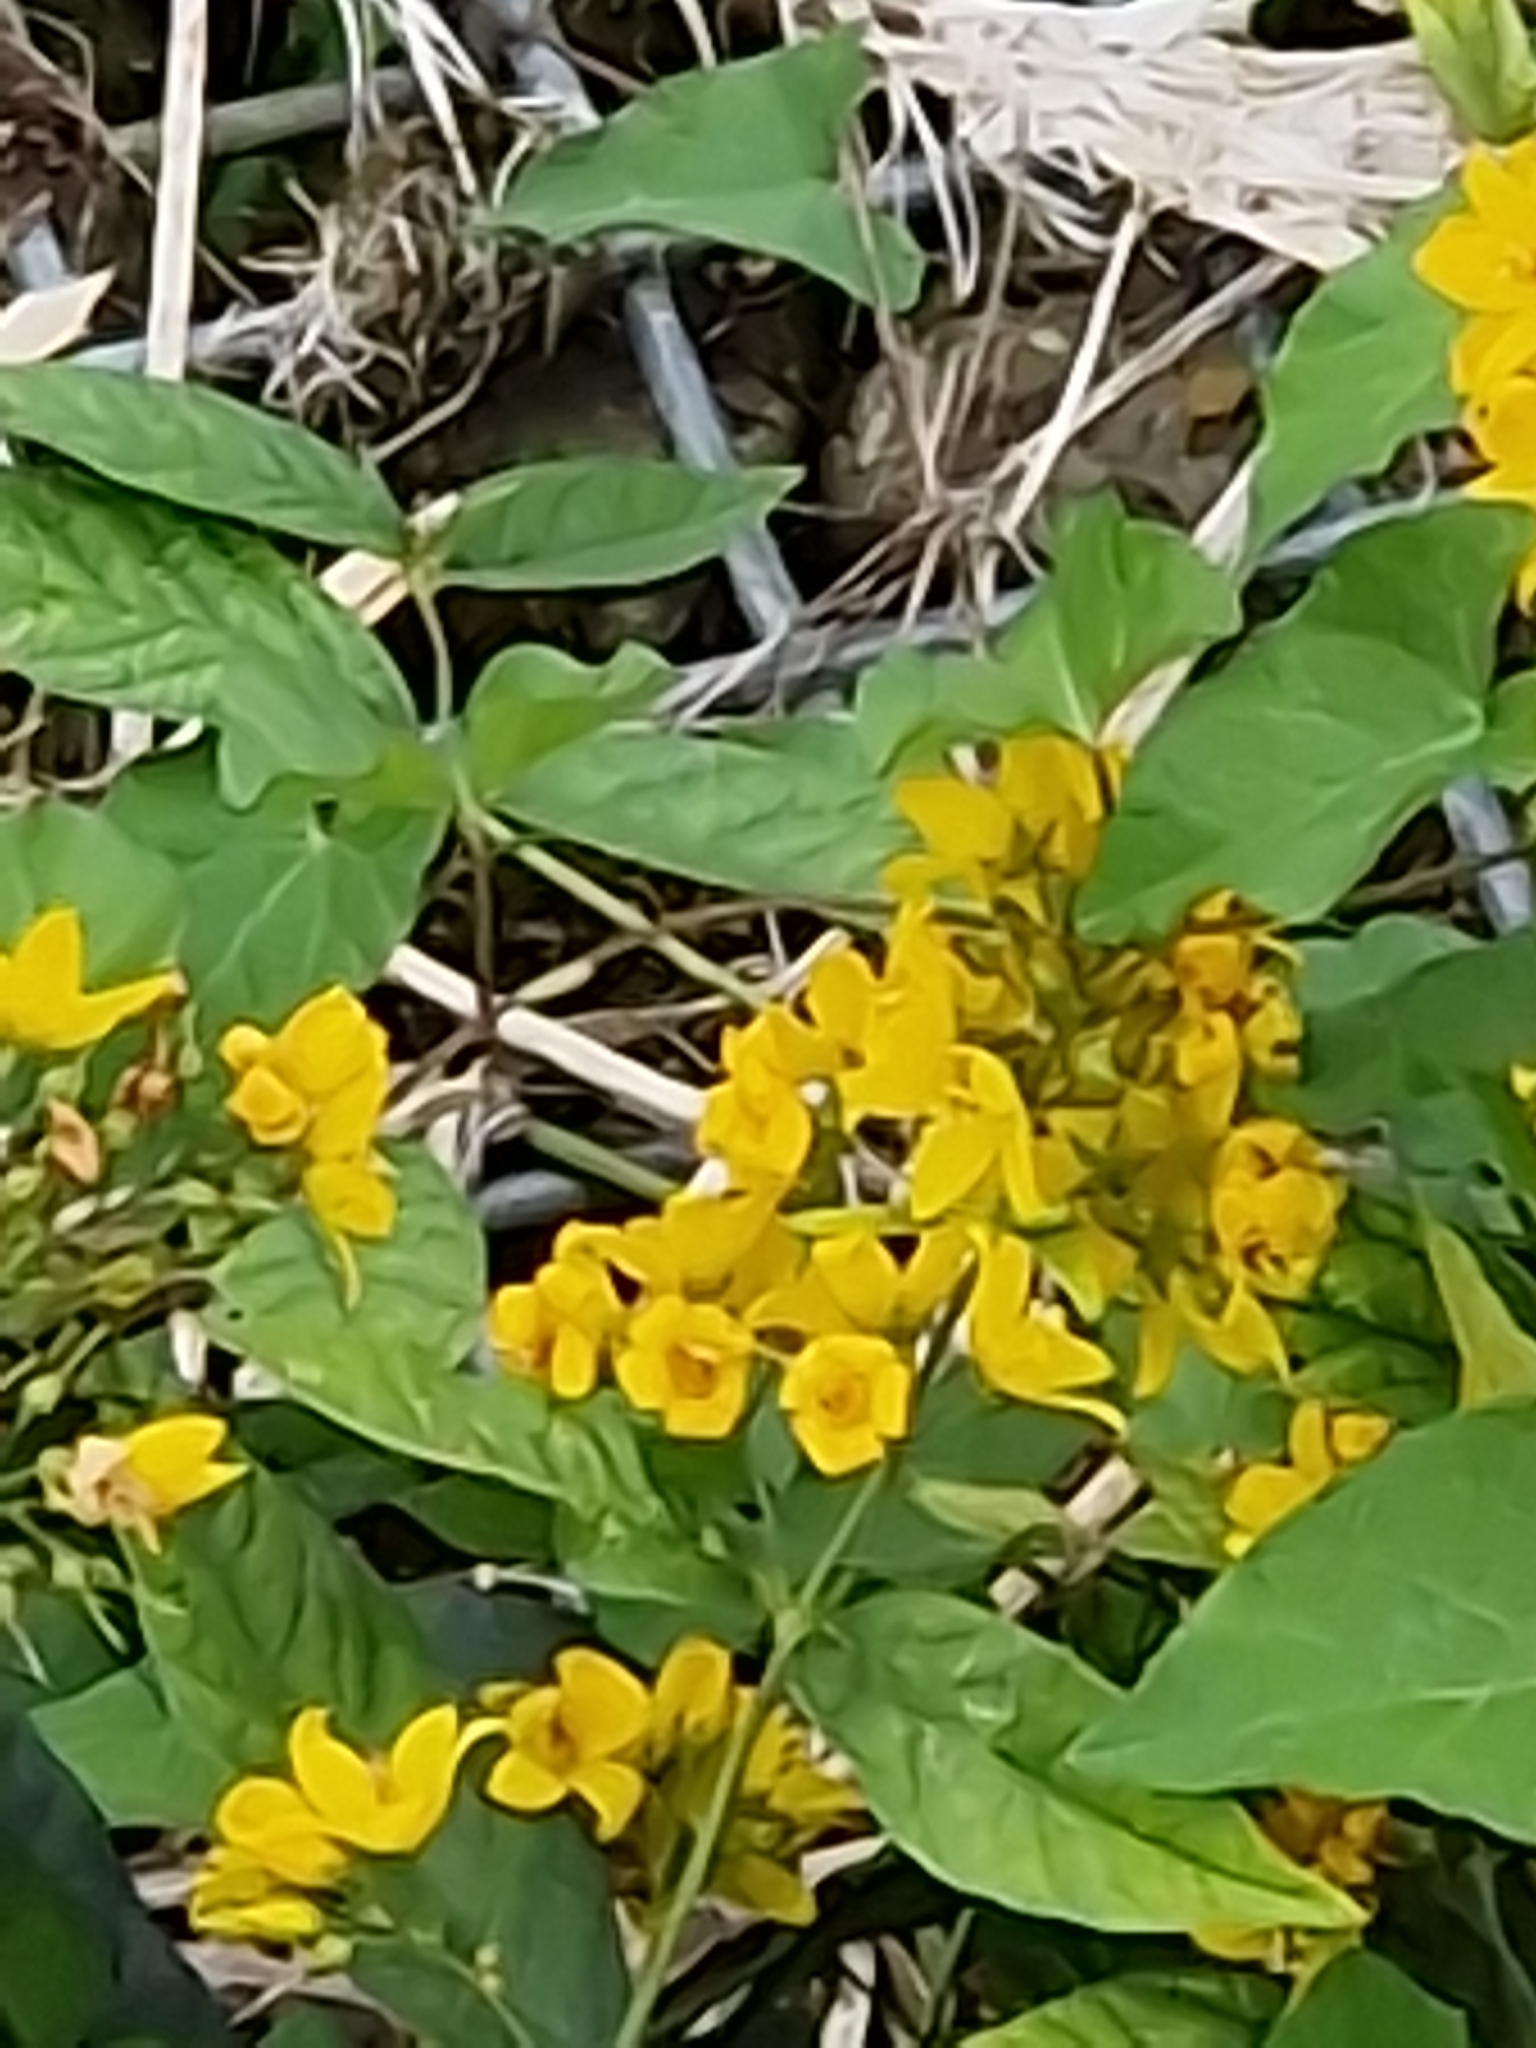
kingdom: Plantae
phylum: Tracheophyta
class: Magnoliopsida
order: Ericales
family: Primulaceae
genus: Lysimachia
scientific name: Lysimachia vulgaris
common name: Yellow loosestrife
